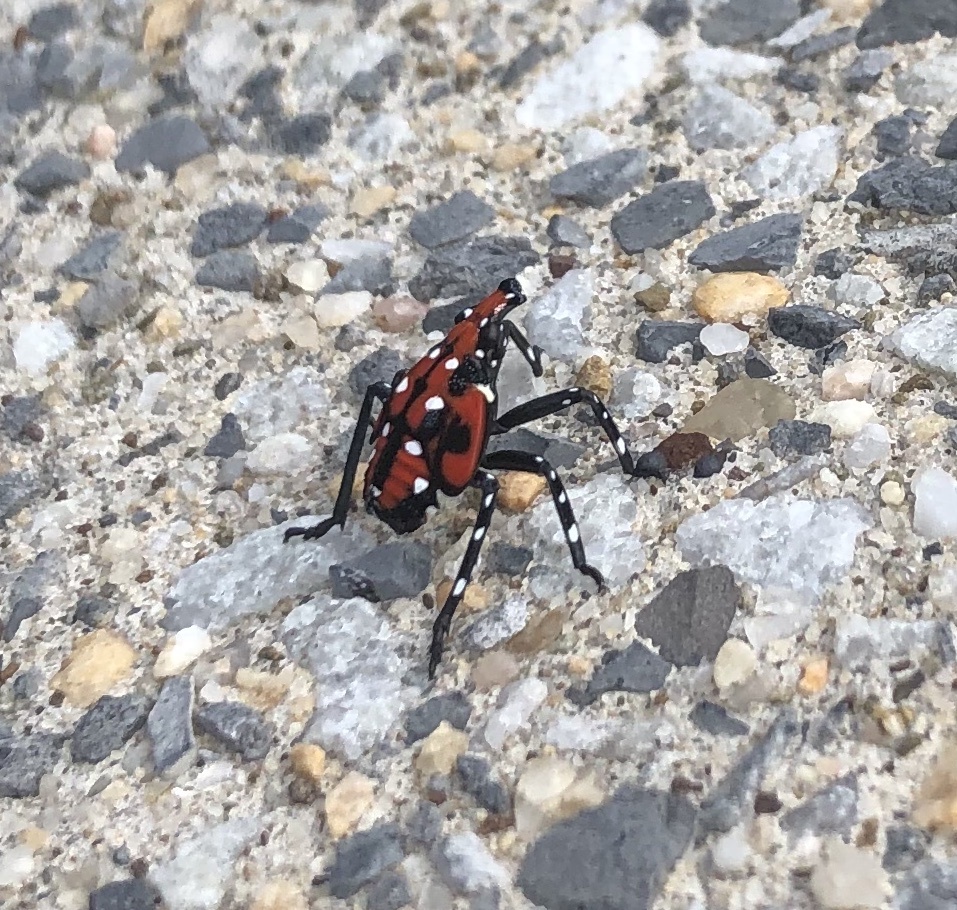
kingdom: Animalia
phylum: Arthropoda
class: Insecta
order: Hemiptera
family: Fulgoridae
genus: Lycorma
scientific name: Lycorma delicatula
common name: Spotted lanternfly
